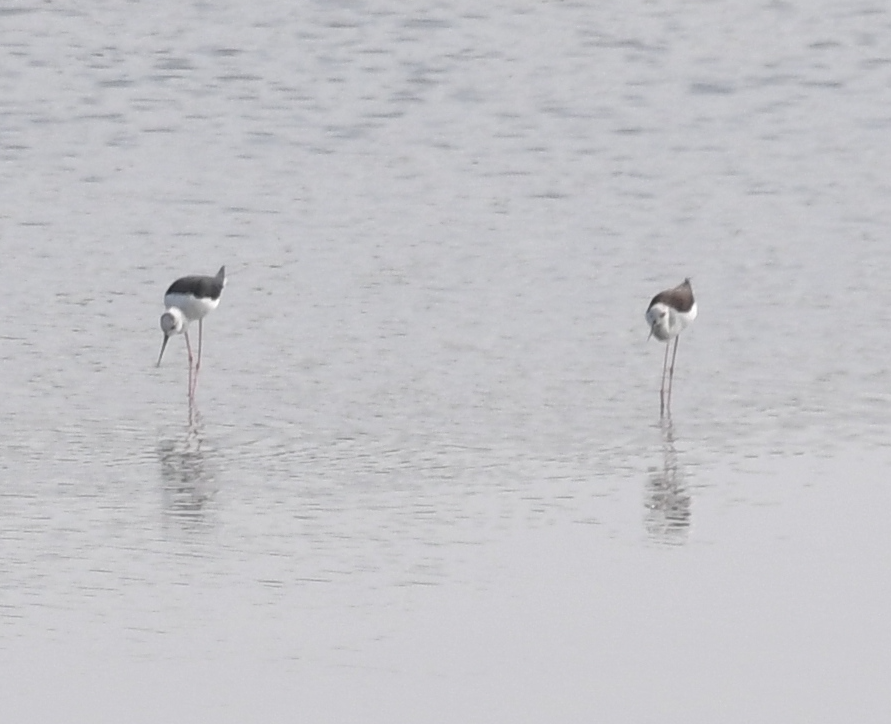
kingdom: Animalia
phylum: Chordata
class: Aves
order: Charadriiformes
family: Recurvirostridae
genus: Himantopus
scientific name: Himantopus himantopus
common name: Black-winged stilt
